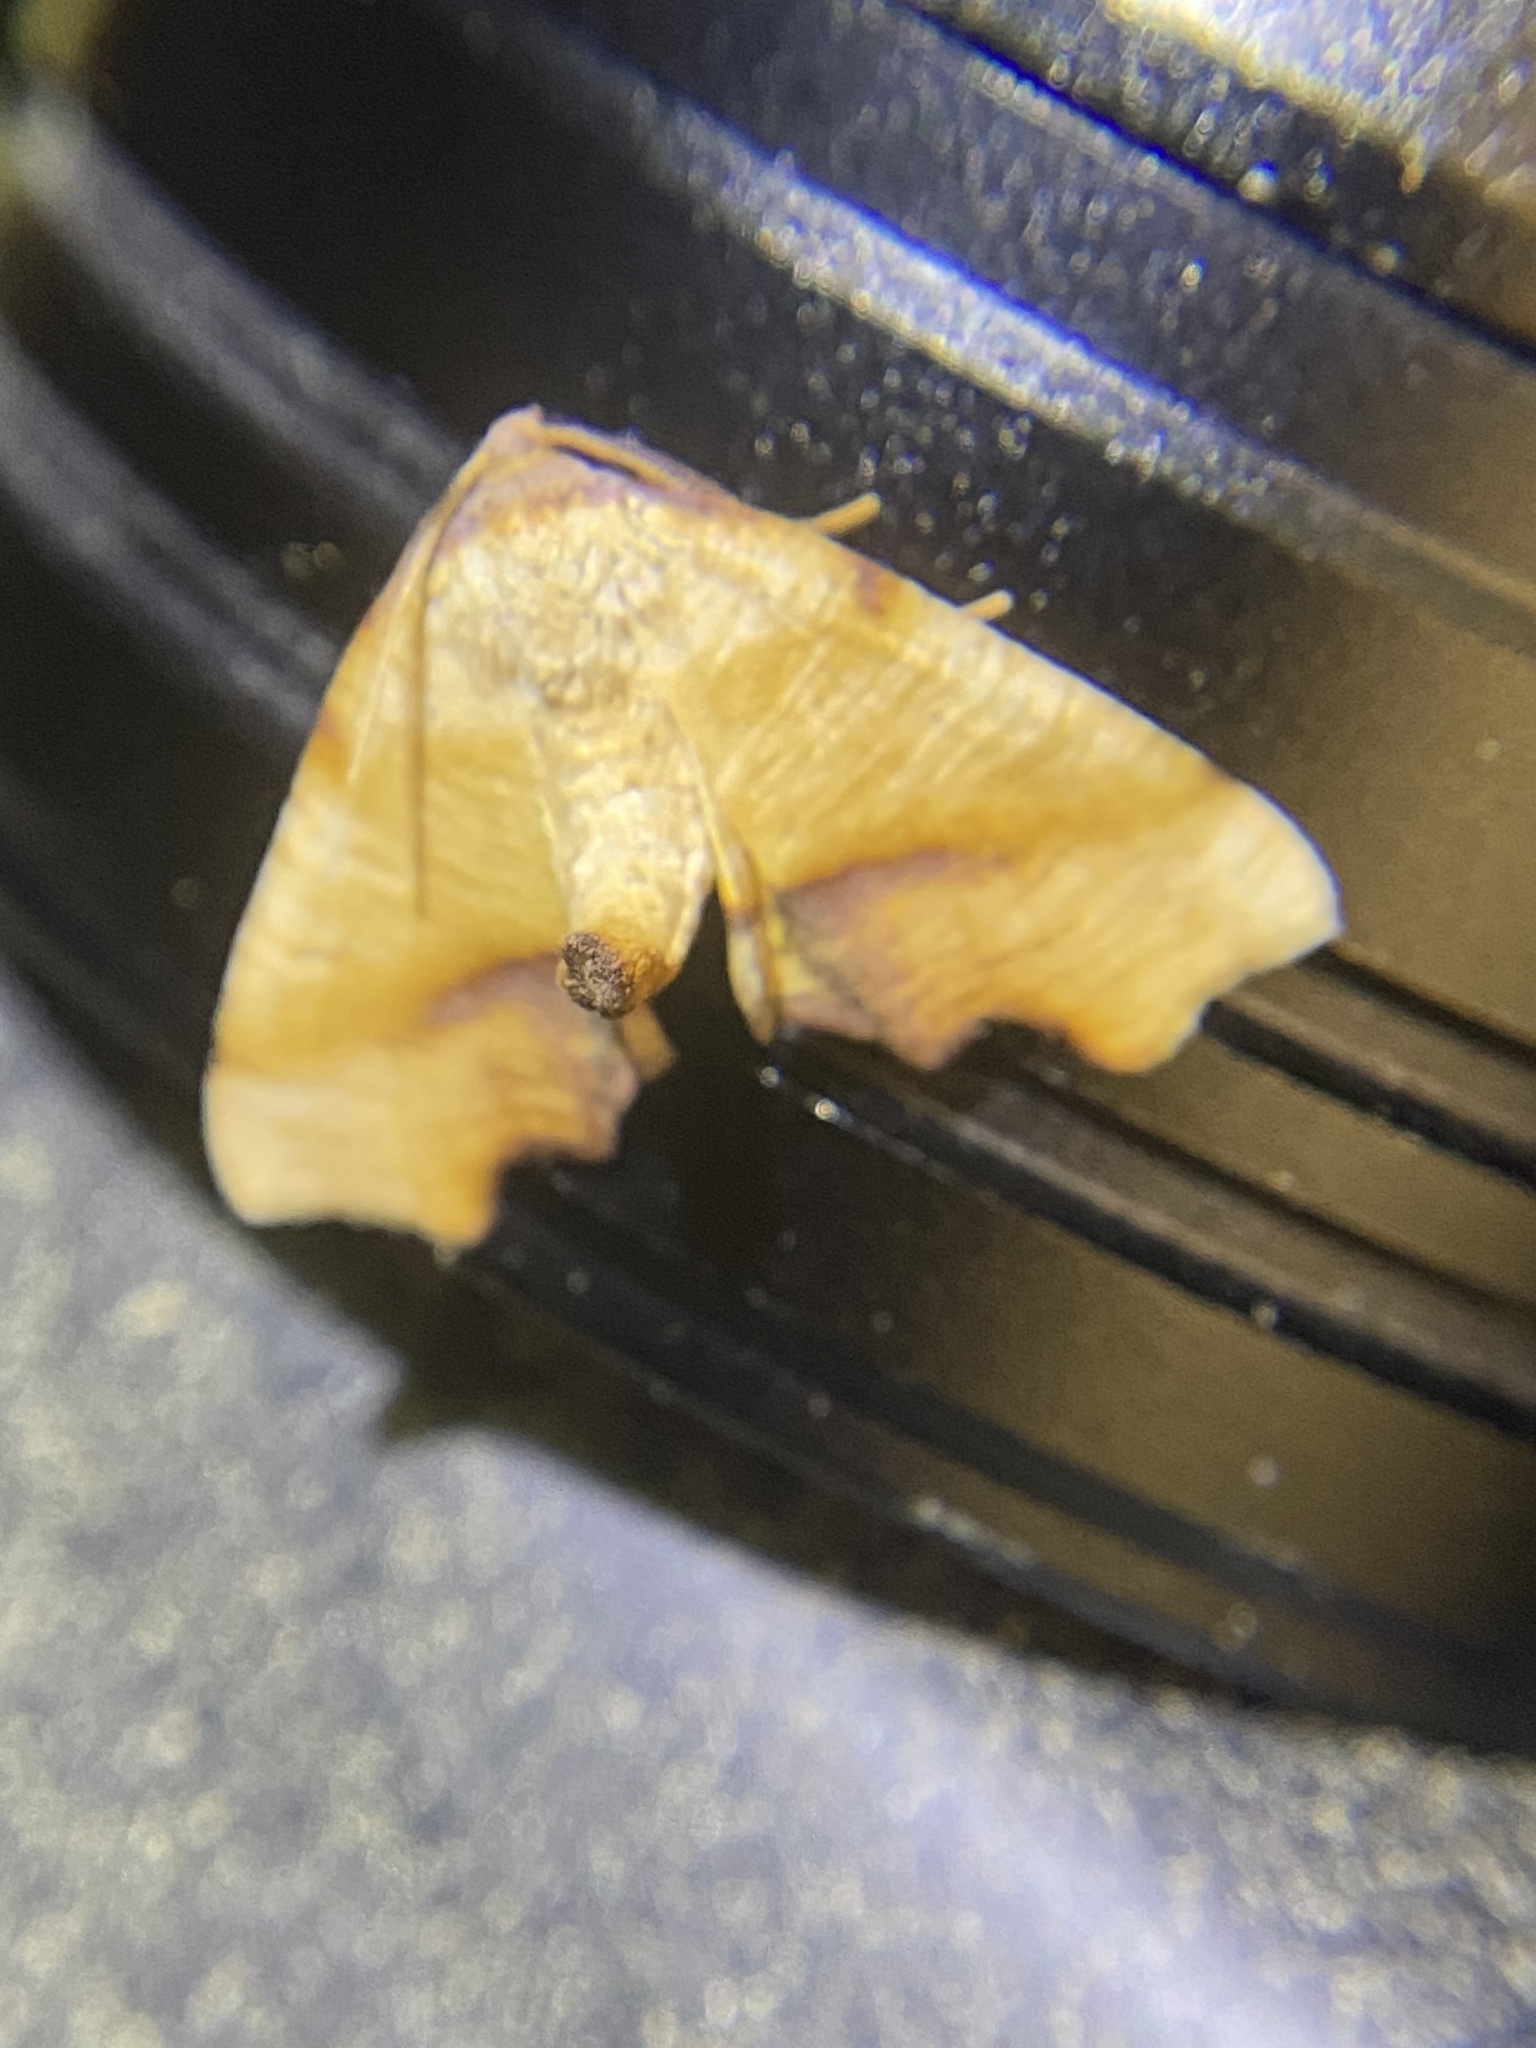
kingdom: Animalia
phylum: Arthropoda
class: Insecta
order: Lepidoptera
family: Geometridae
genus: Plagodis
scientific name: Plagodis fervidaria
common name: Fervid plagodis
